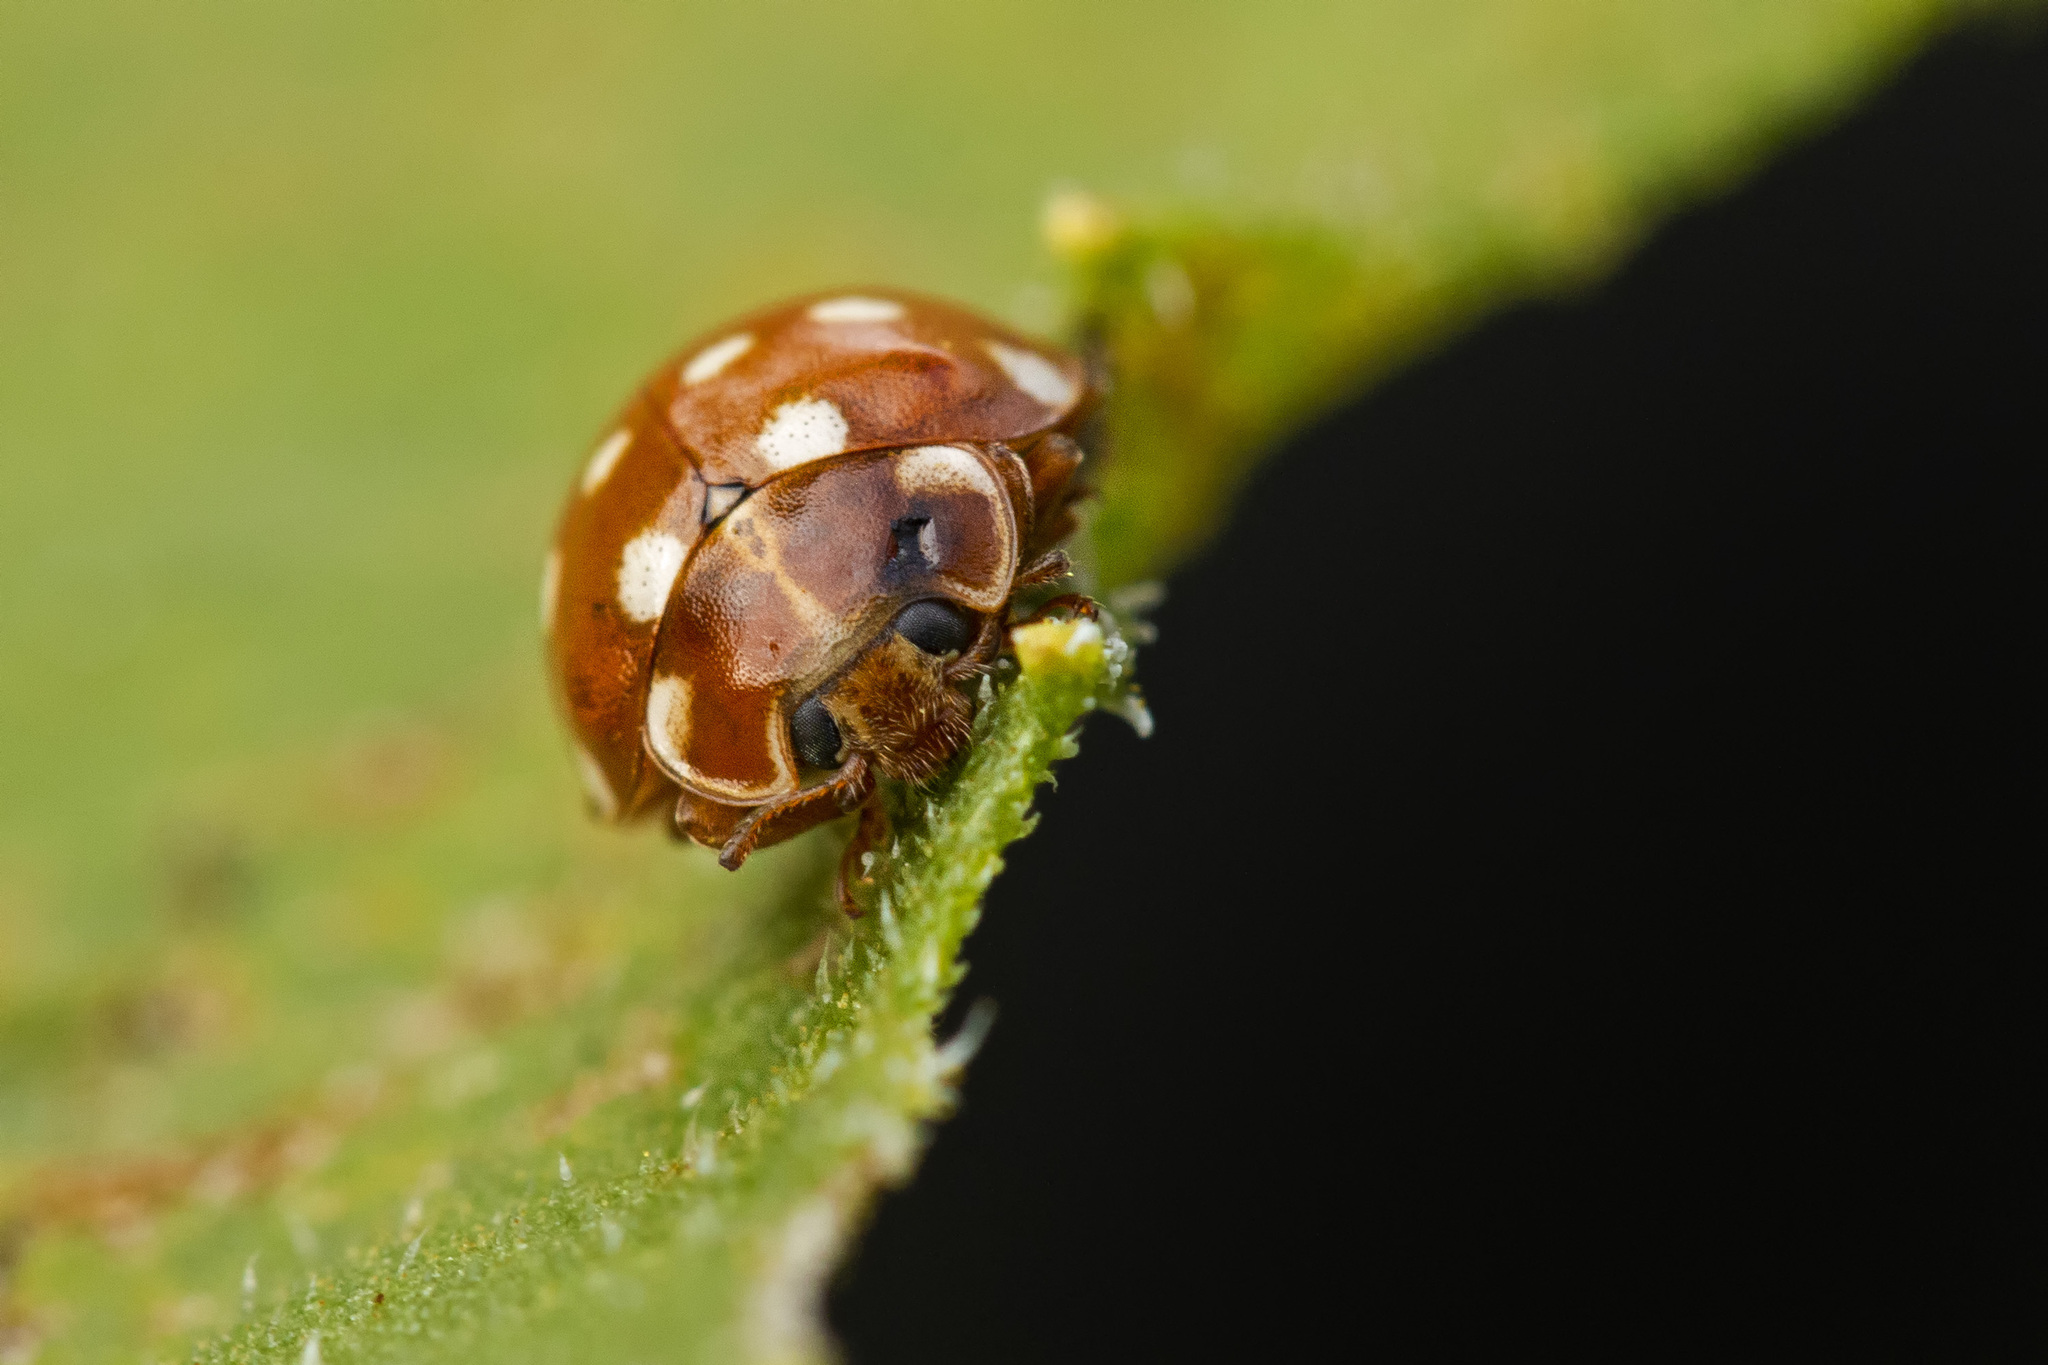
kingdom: Animalia
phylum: Arthropoda
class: Insecta
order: Coleoptera
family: Coccinellidae
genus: Calvia
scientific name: Calvia quatuordecimguttata
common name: Cream-spot ladybird
